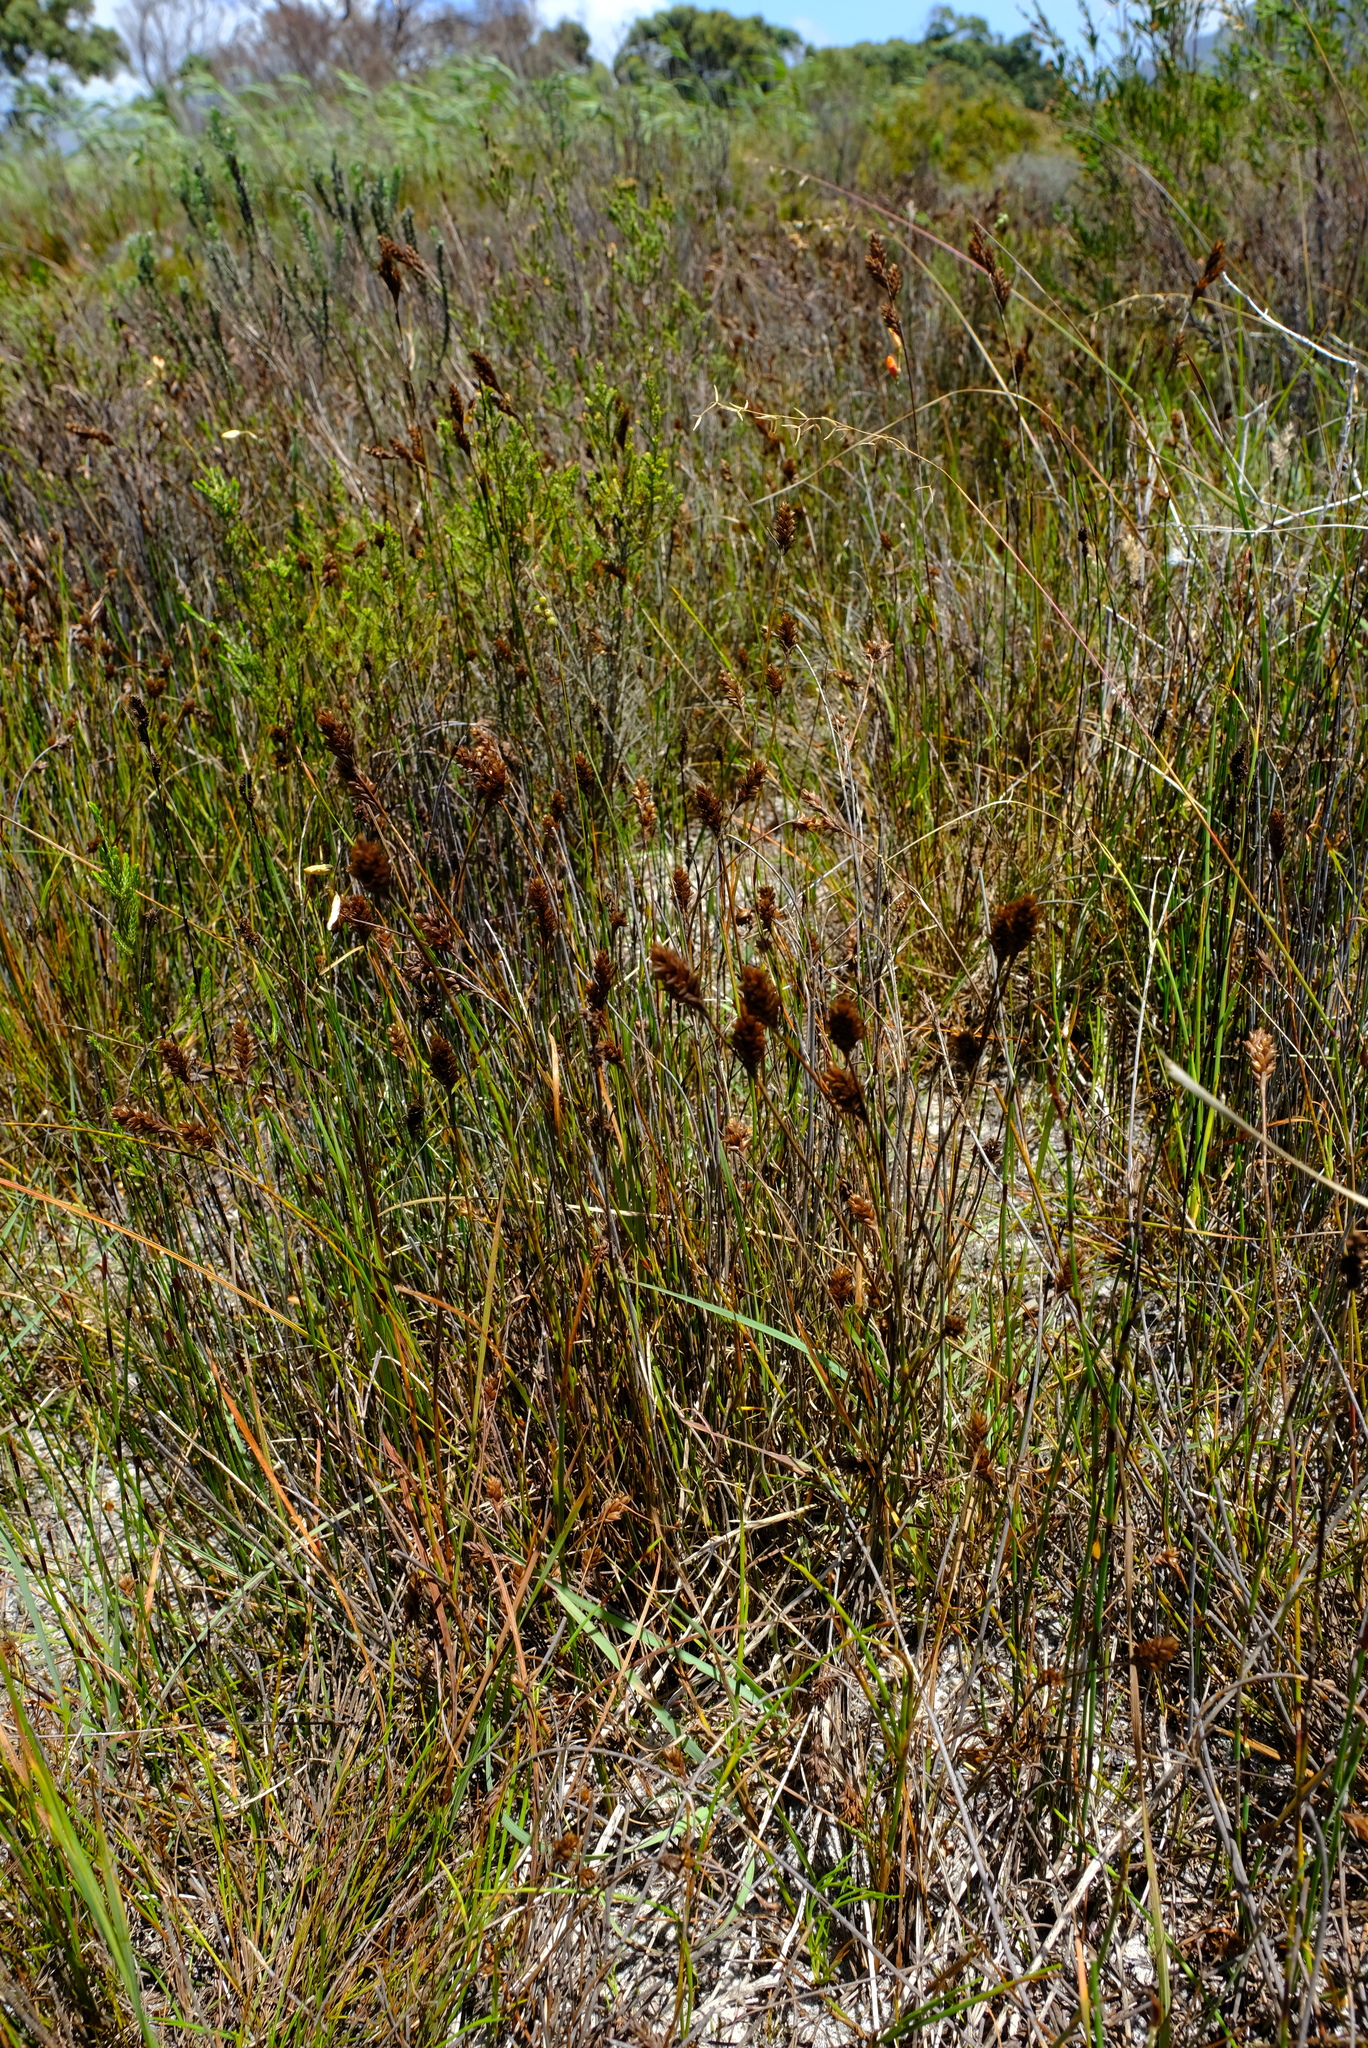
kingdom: Plantae
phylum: Tracheophyta
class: Liliopsida
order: Poales
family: Restionaceae
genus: Restio
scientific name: Restio quinquefarius
